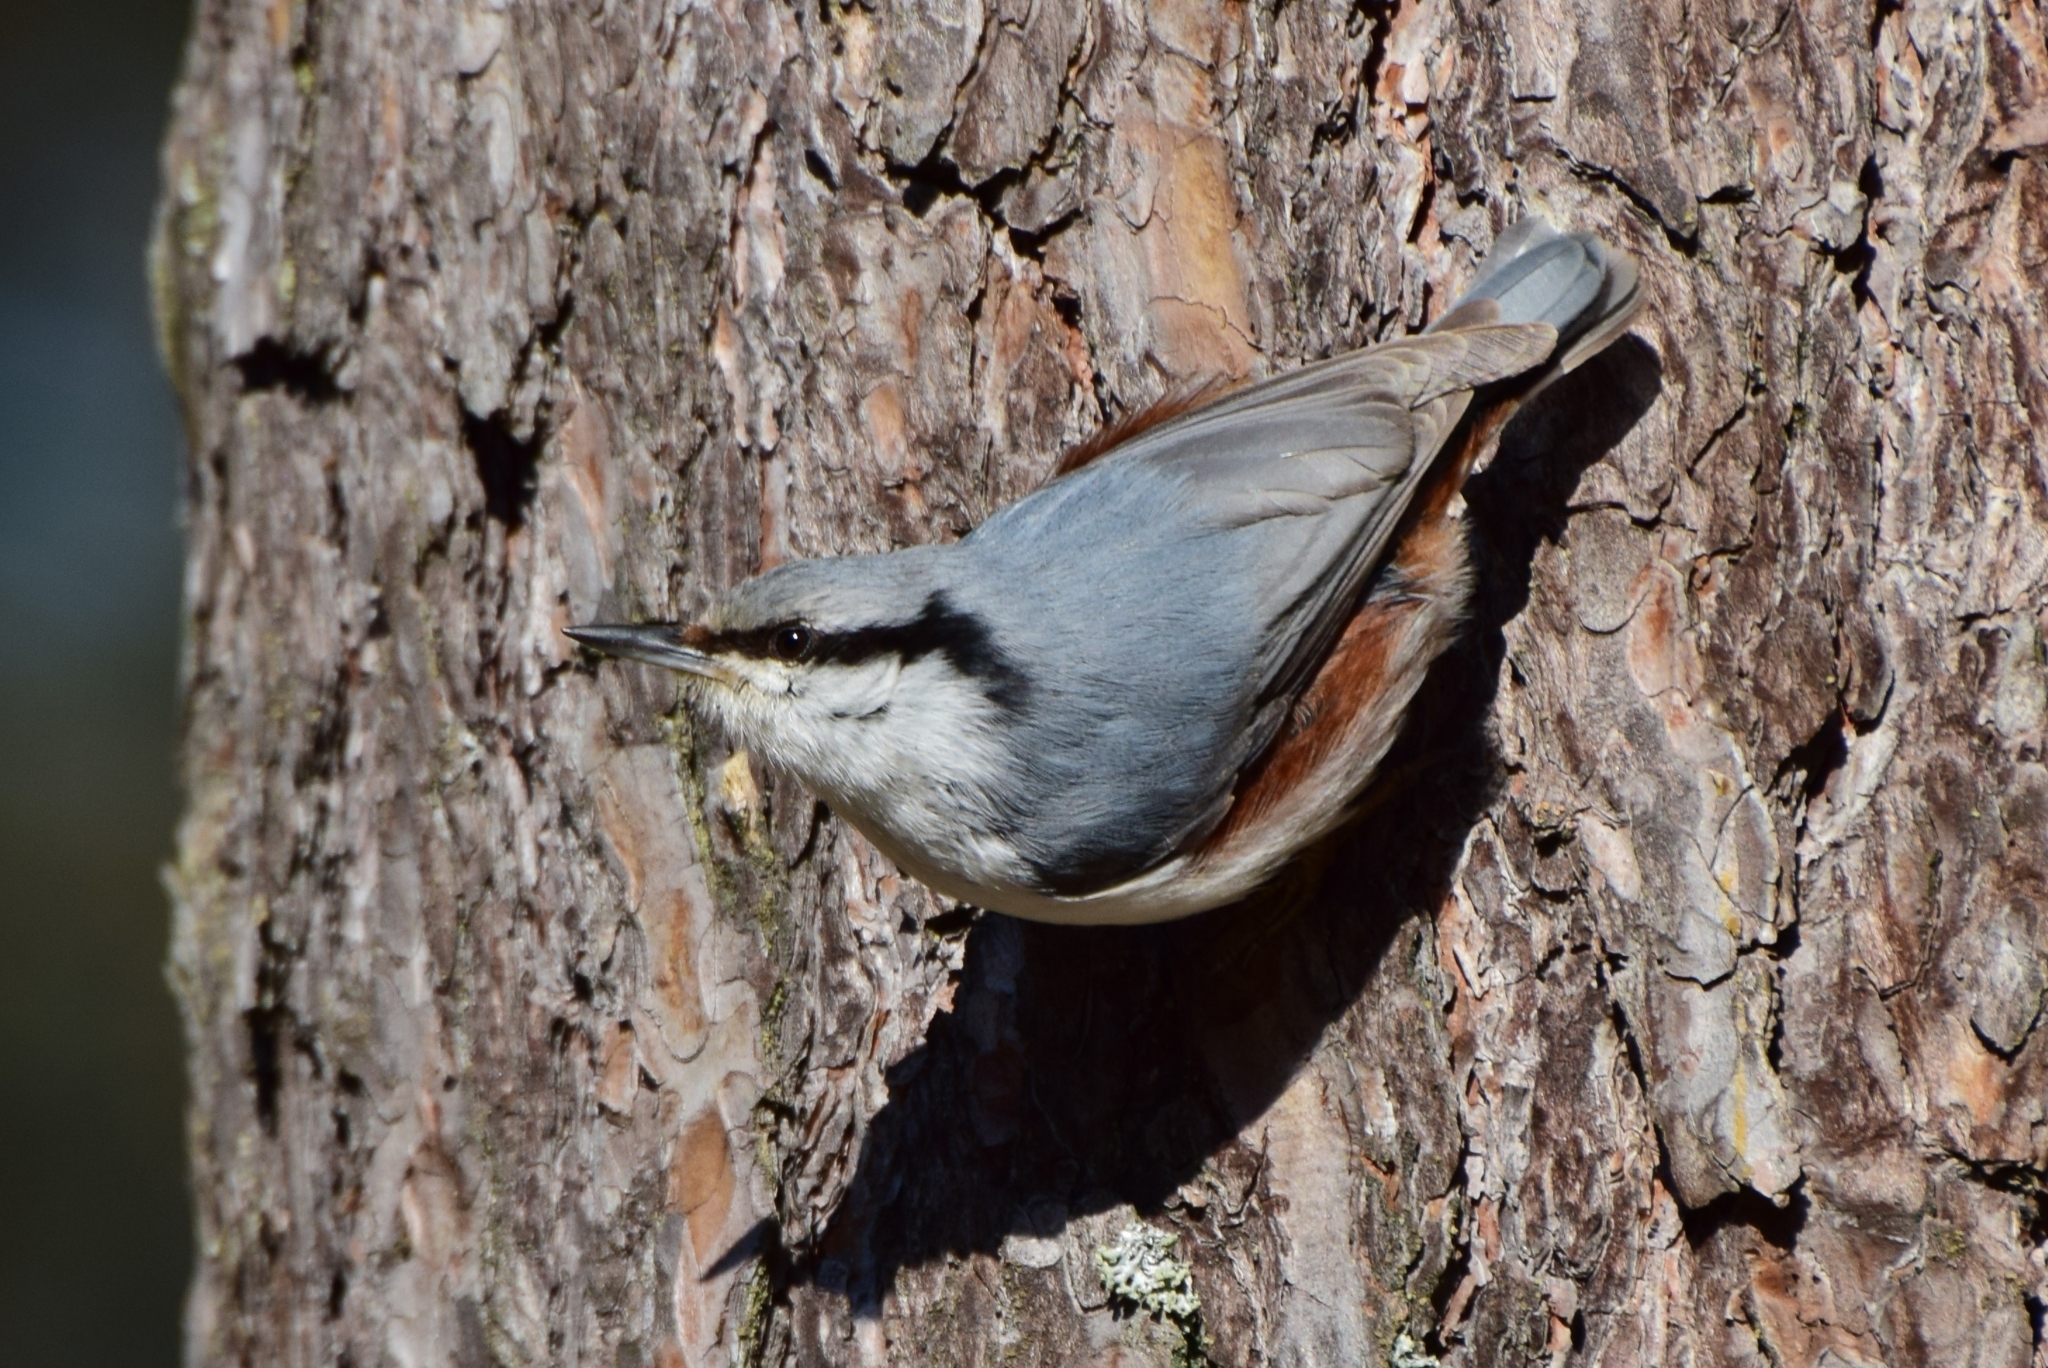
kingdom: Animalia
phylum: Chordata
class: Aves
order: Passeriformes
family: Sittidae
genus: Sitta
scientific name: Sitta europaea
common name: Eurasian nuthatch
